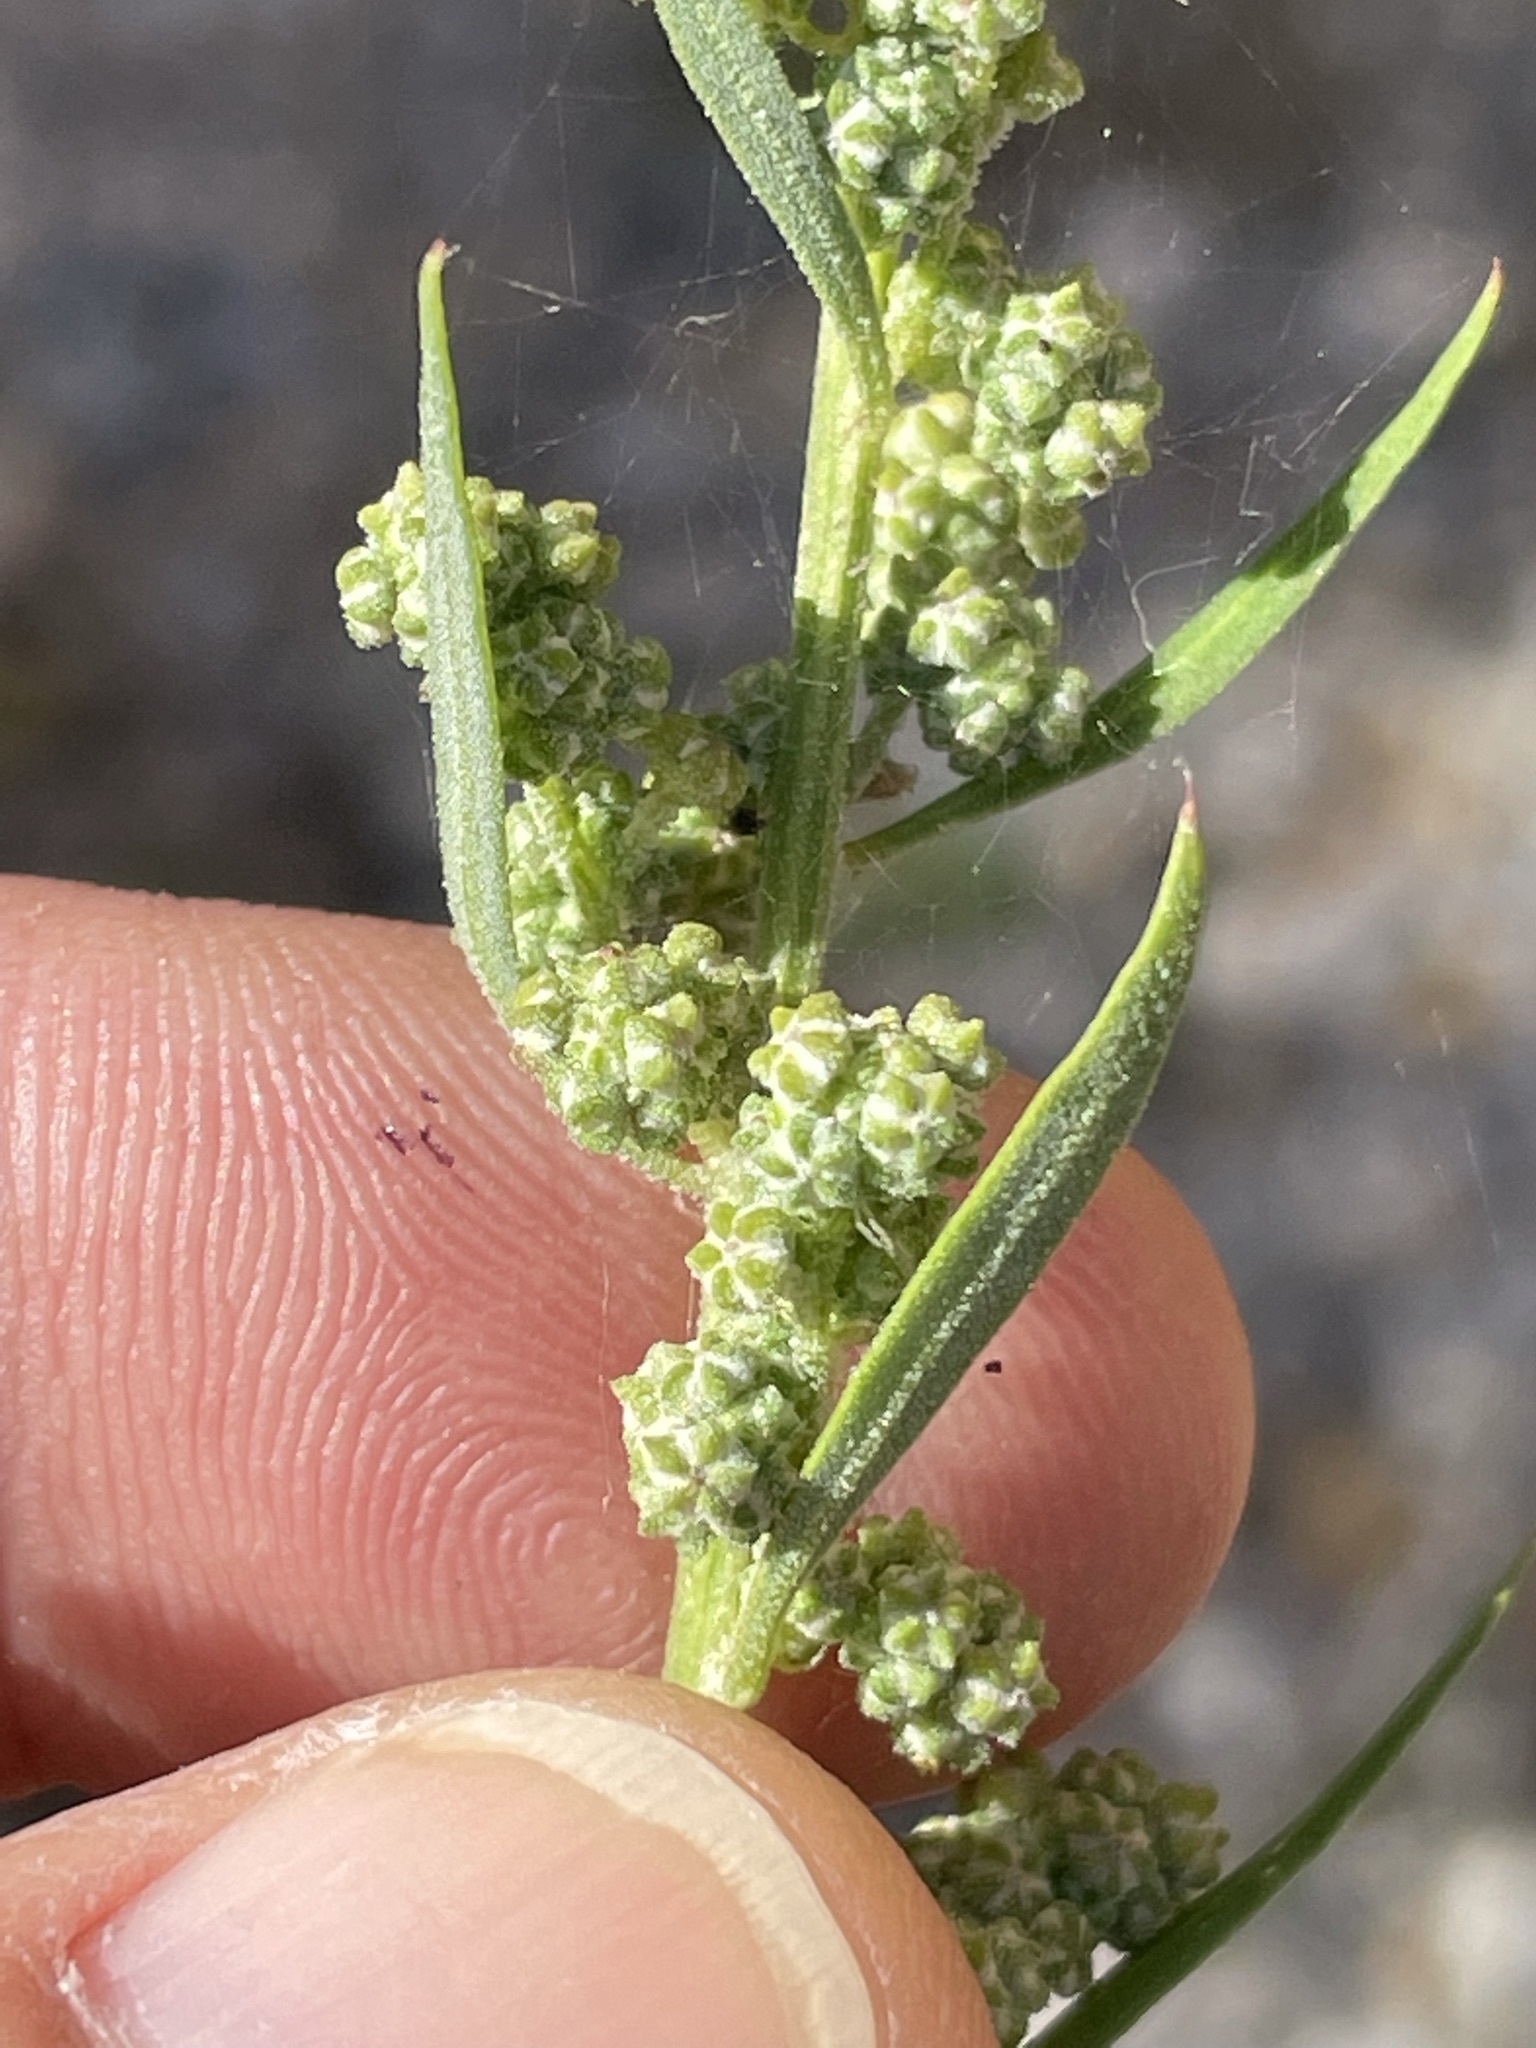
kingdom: Plantae
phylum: Tracheophyta
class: Magnoliopsida
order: Caryophyllales
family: Amaranthaceae
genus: Chenopodium
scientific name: Chenopodium album
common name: Fat-hen
